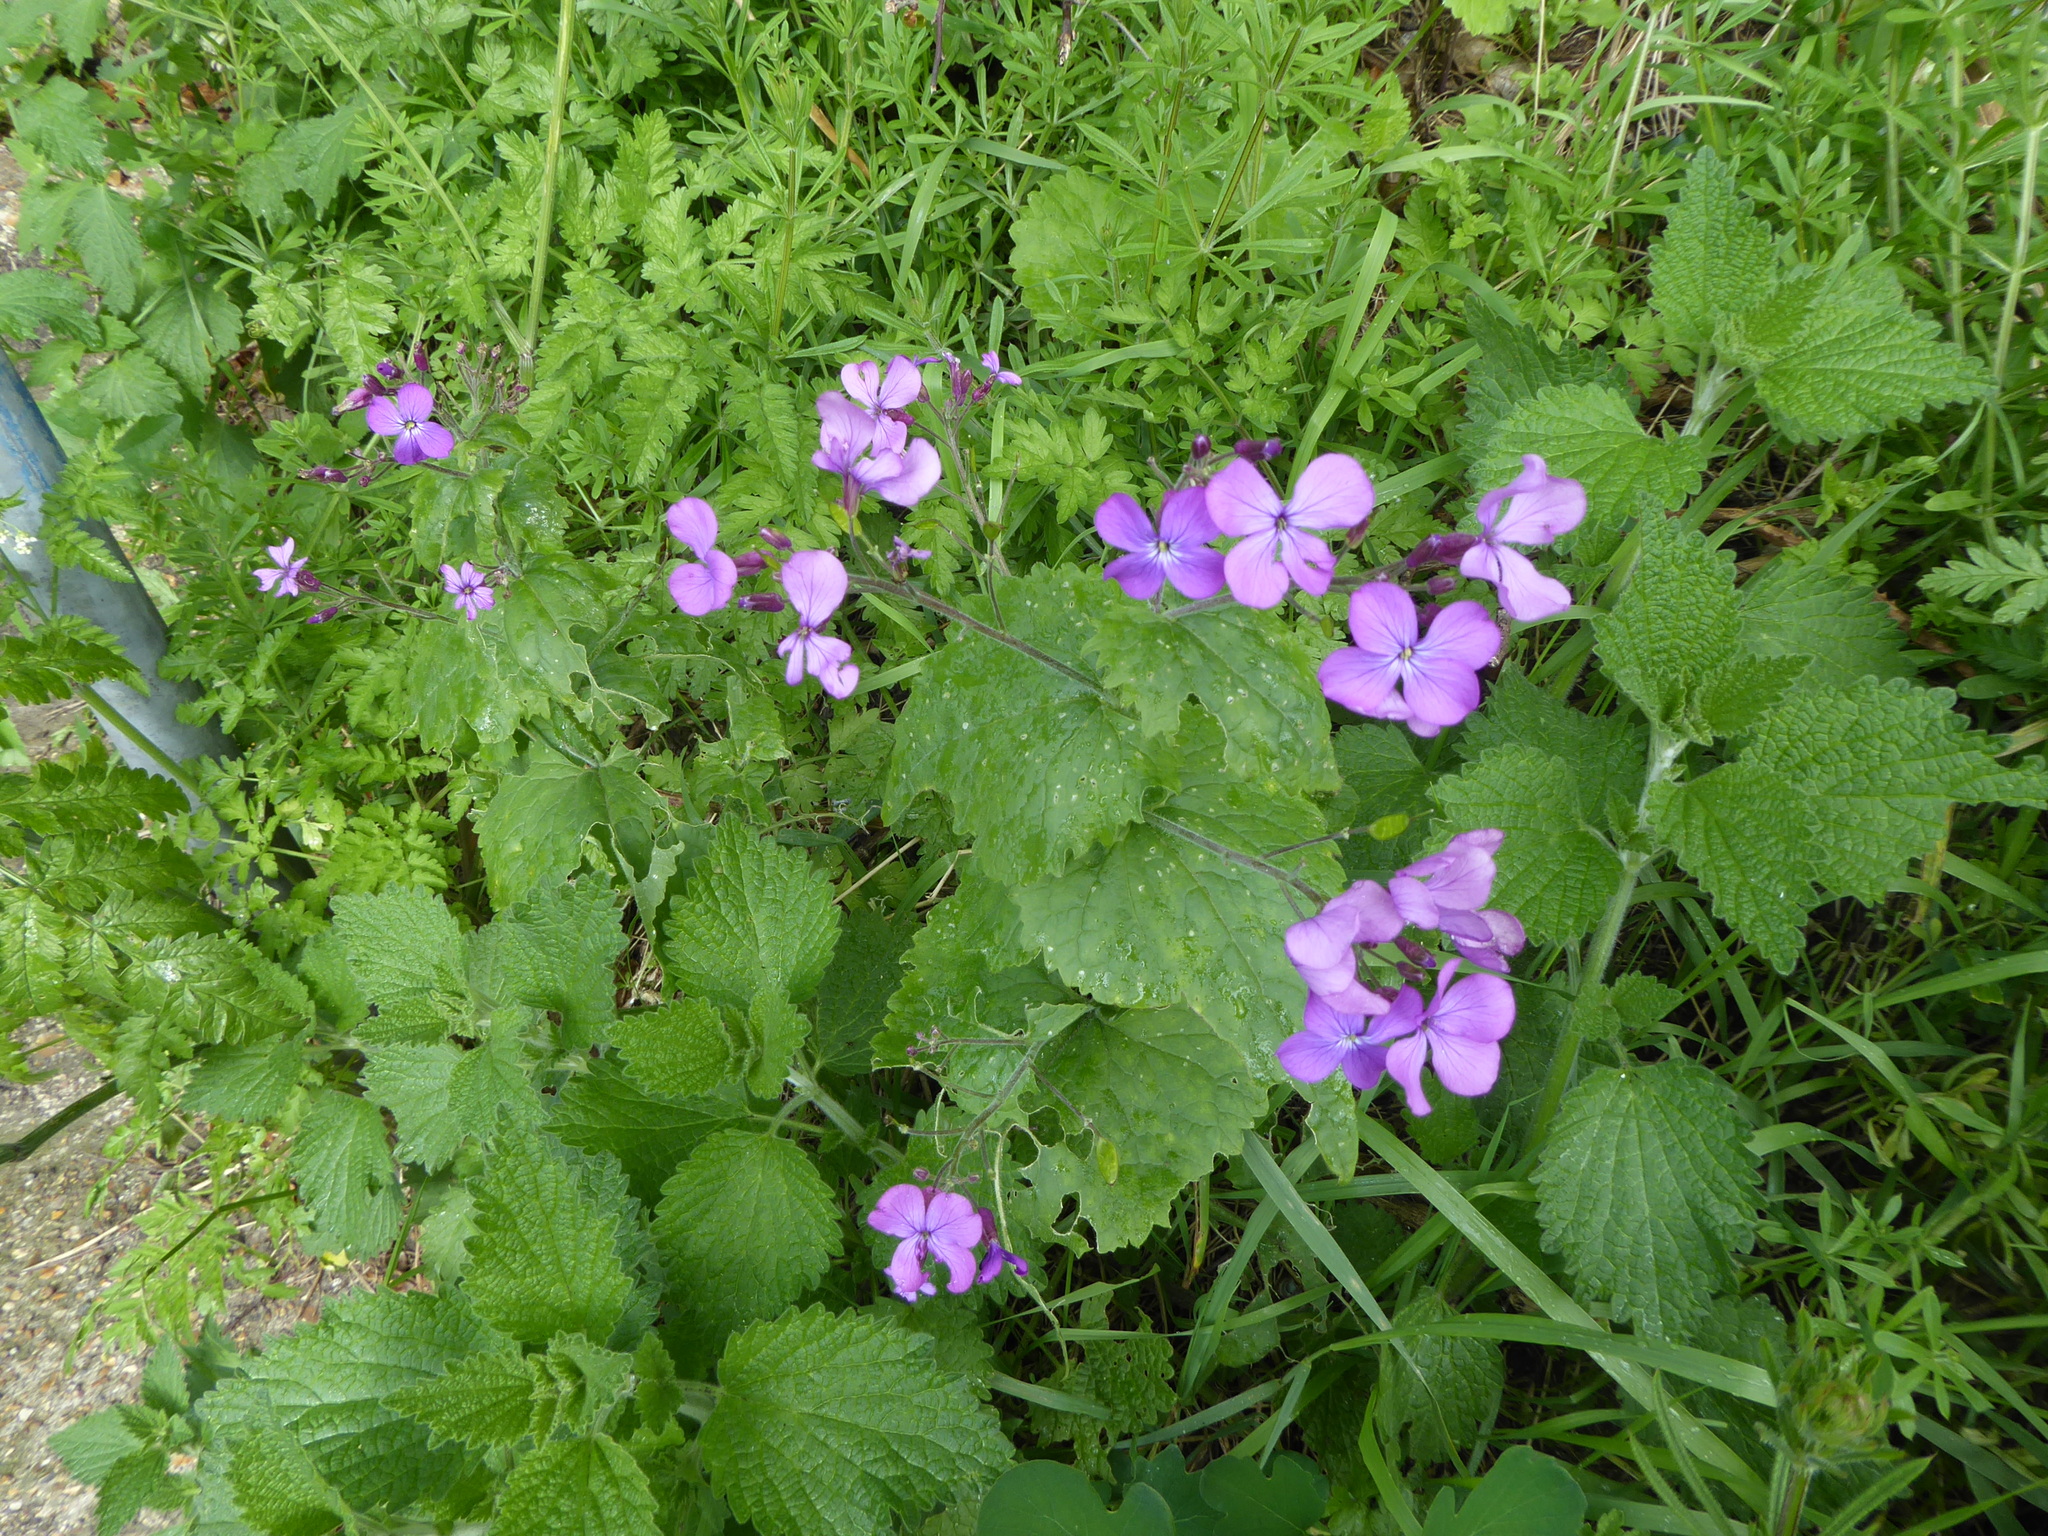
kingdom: Plantae
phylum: Tracheophyta
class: Magnoliopsida
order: Brassicales
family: Brassicaceae
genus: Lunaria
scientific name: Lunaria annua
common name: Honesty
